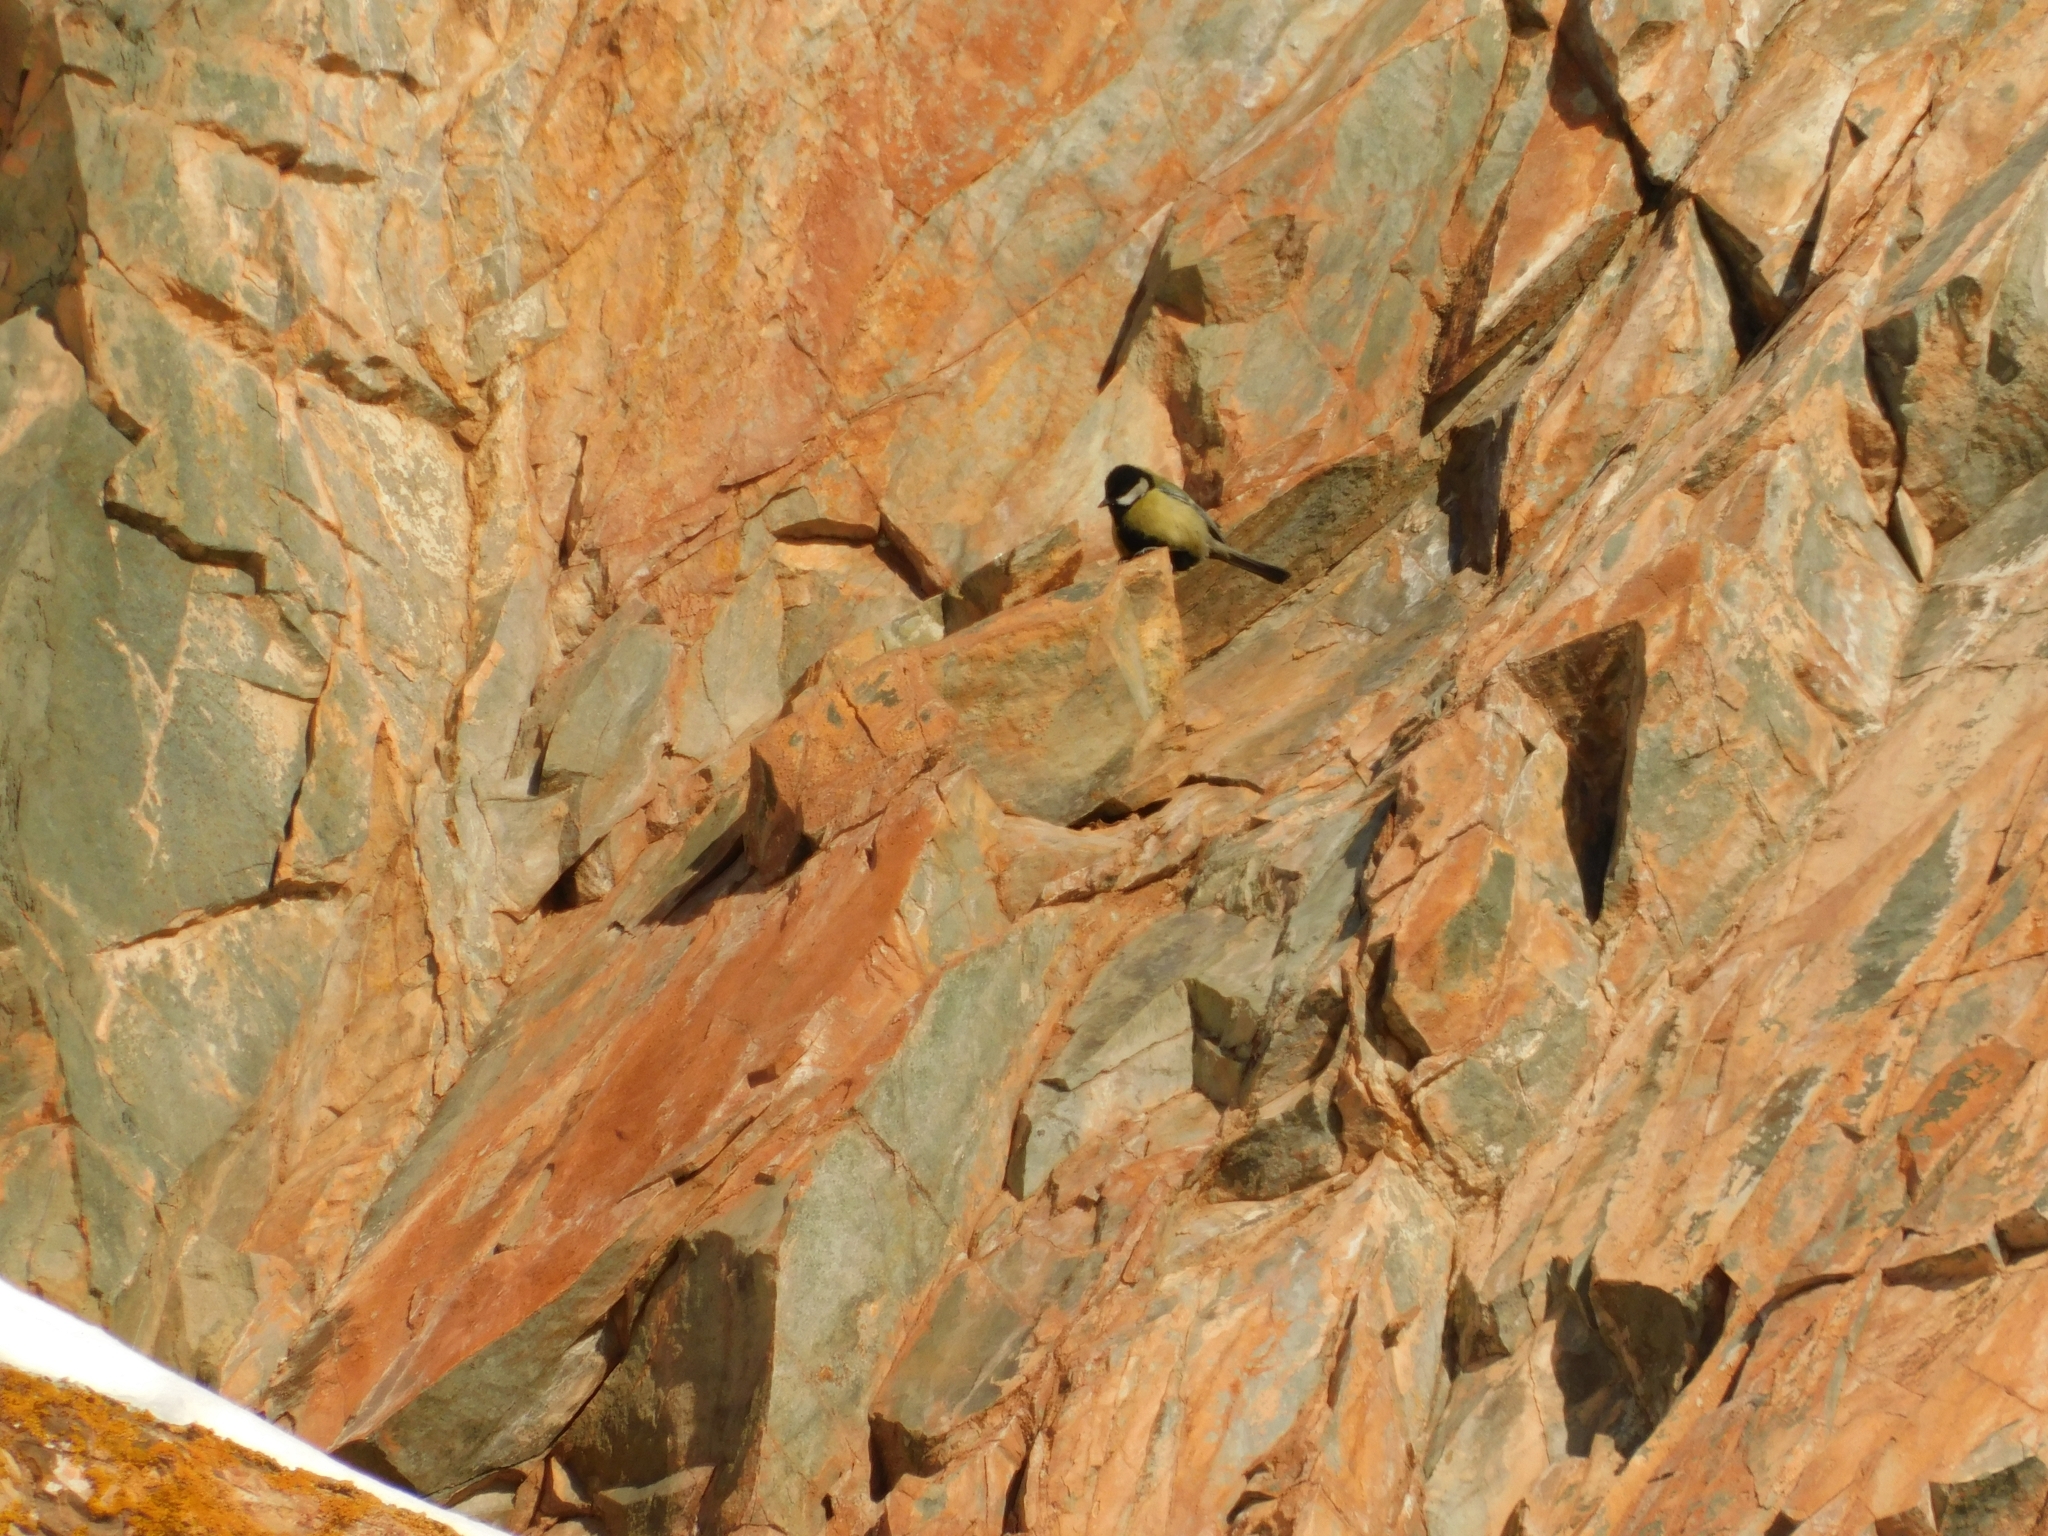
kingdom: Animalia
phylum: Chordata
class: Aves
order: Passeriformes
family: Paridae
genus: Parus
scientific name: Parus major
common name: Great tit
